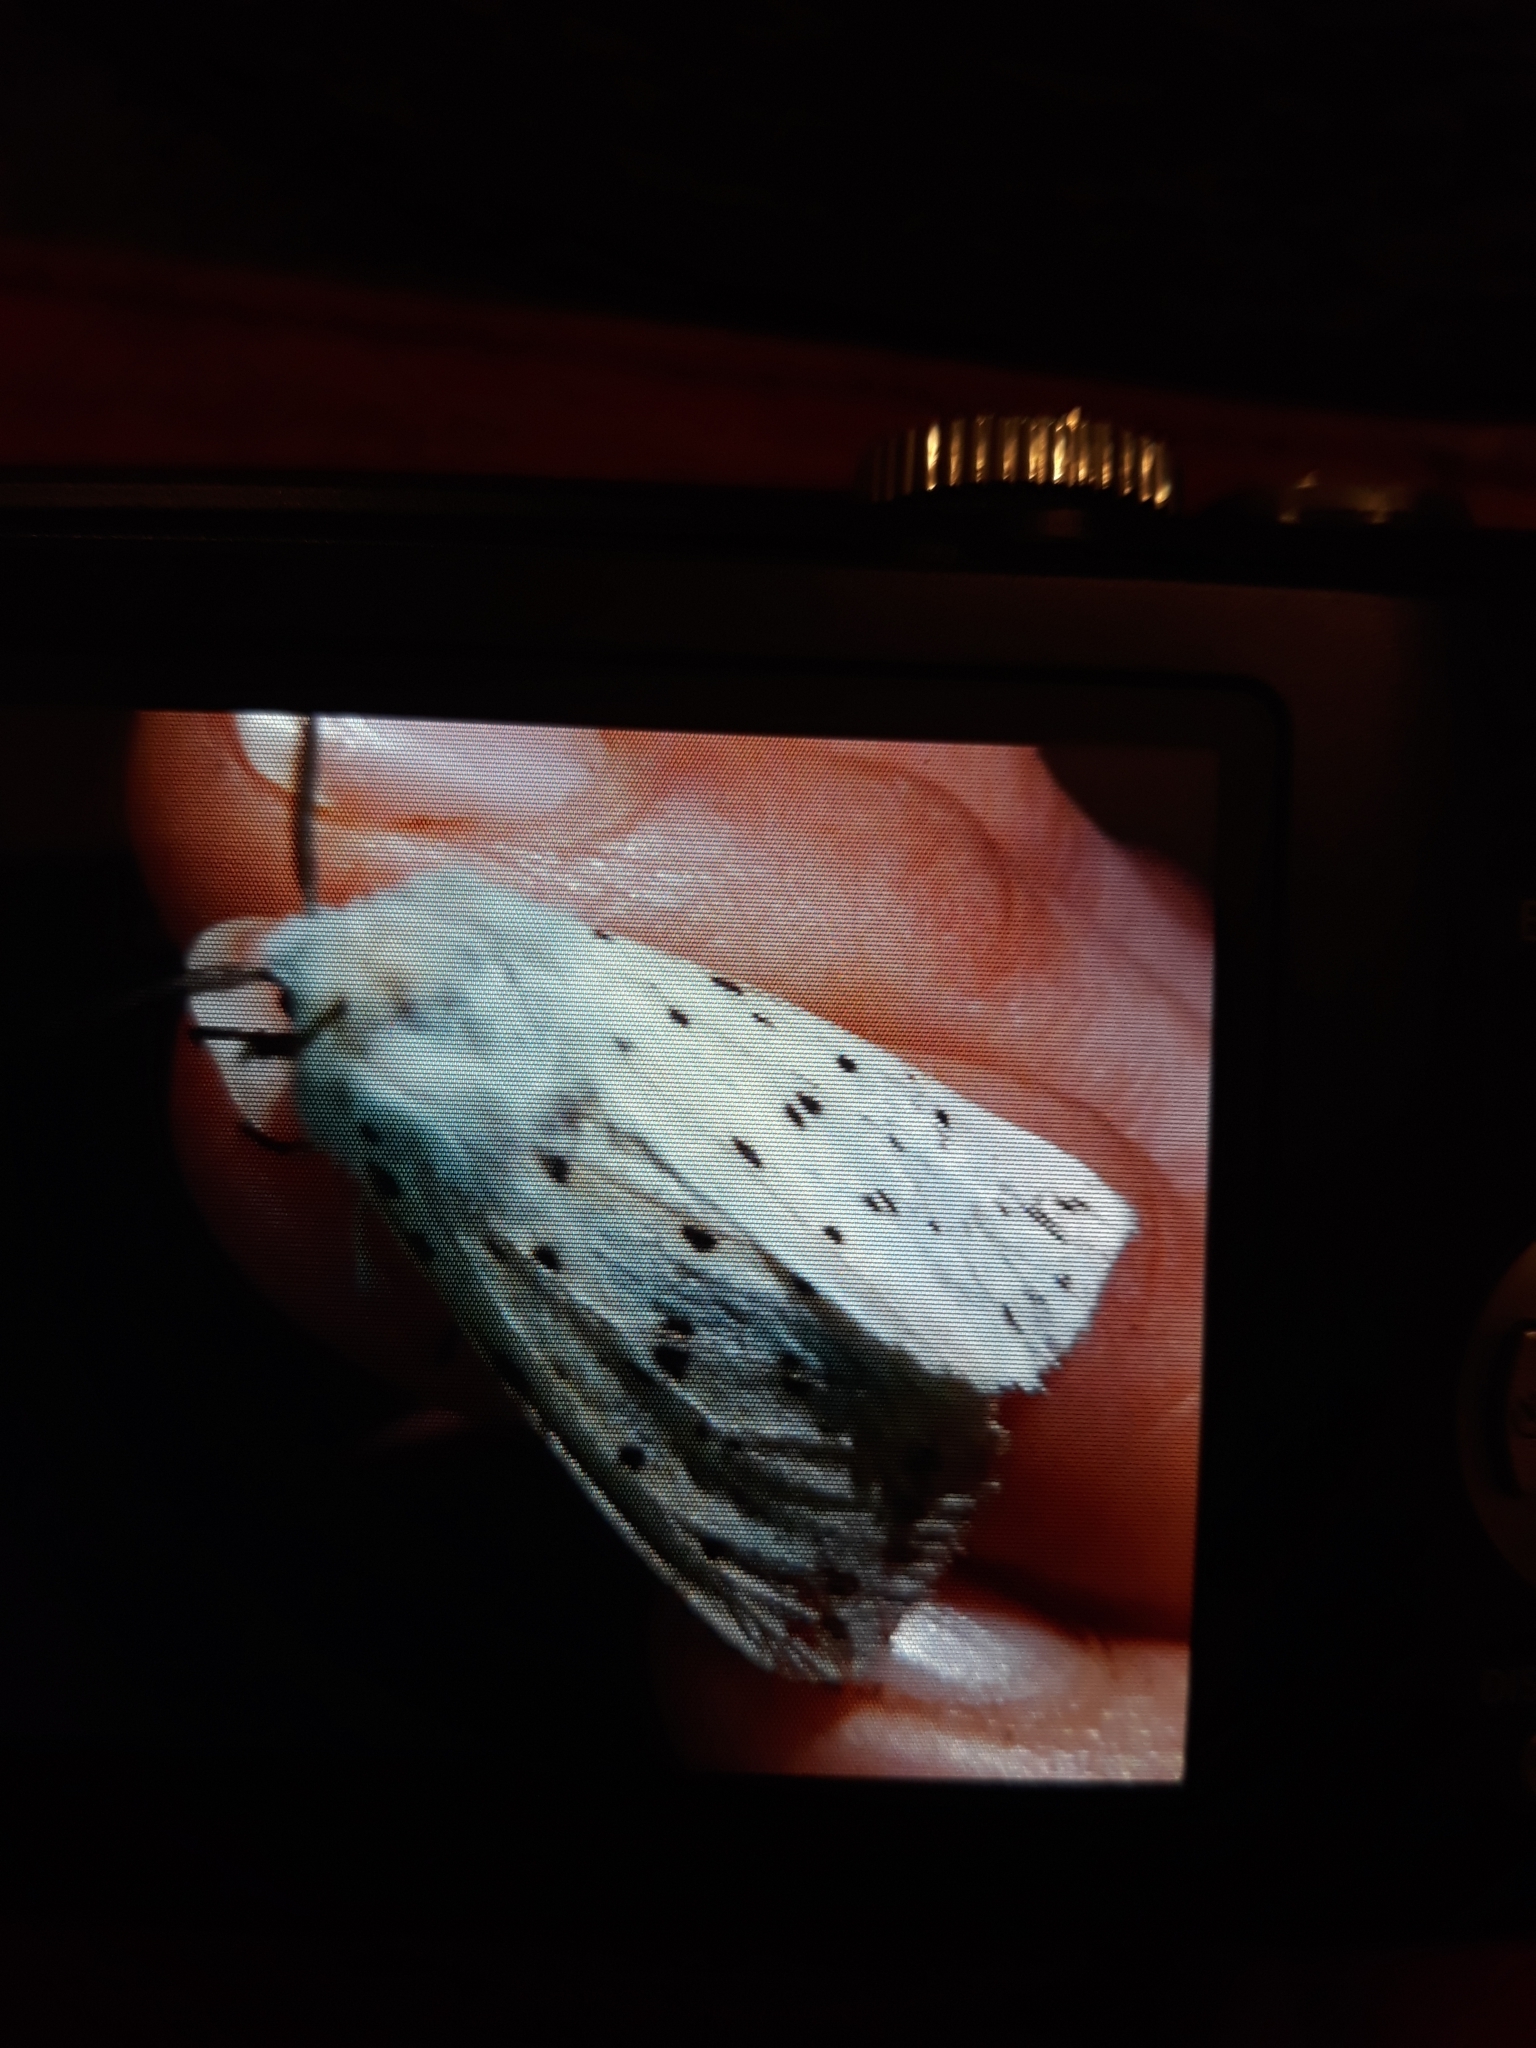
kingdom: Animalia
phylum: Arthropoda
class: Insecta
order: Lepidoptera
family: Erebidae
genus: Spilosoma
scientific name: Spilosoma lubricipeda
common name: White ermine
